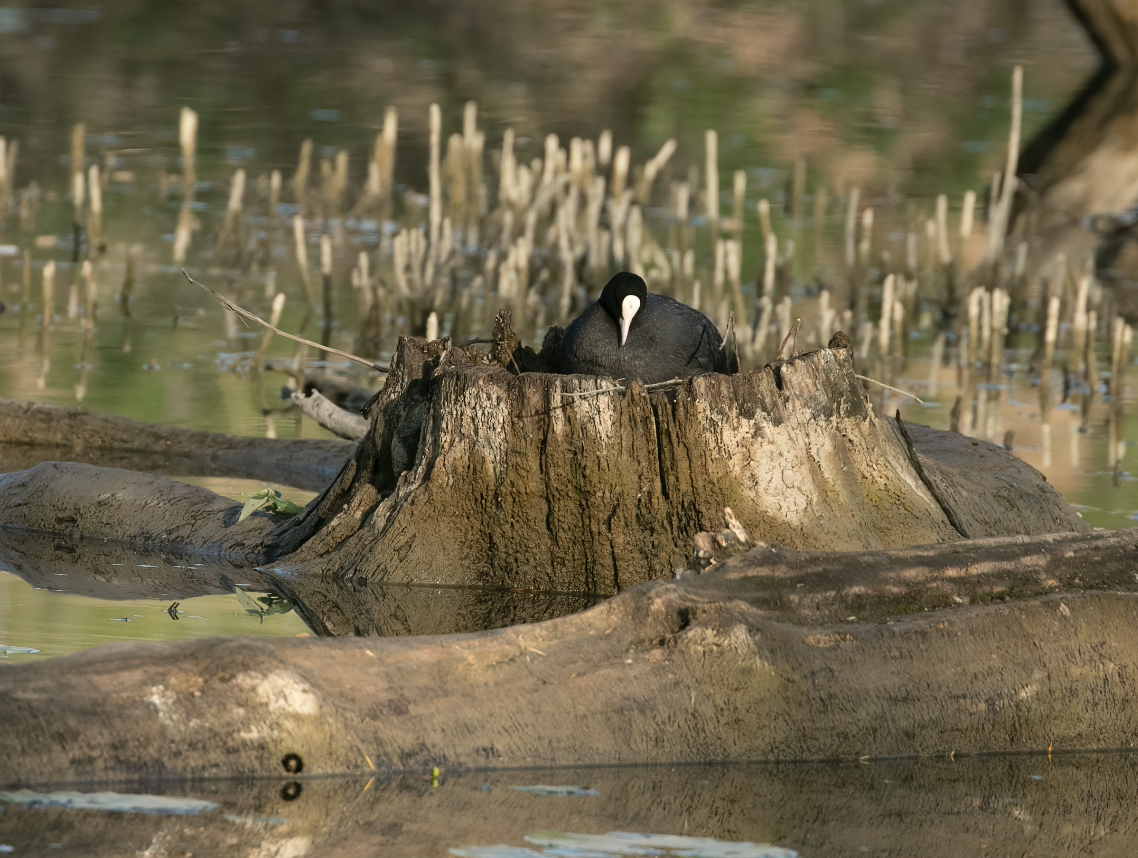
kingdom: Animalia
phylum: Chordata
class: Aves
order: Gruiformes
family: Rallidae
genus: Fulica
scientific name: Fulica atra
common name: Eurasian coot
